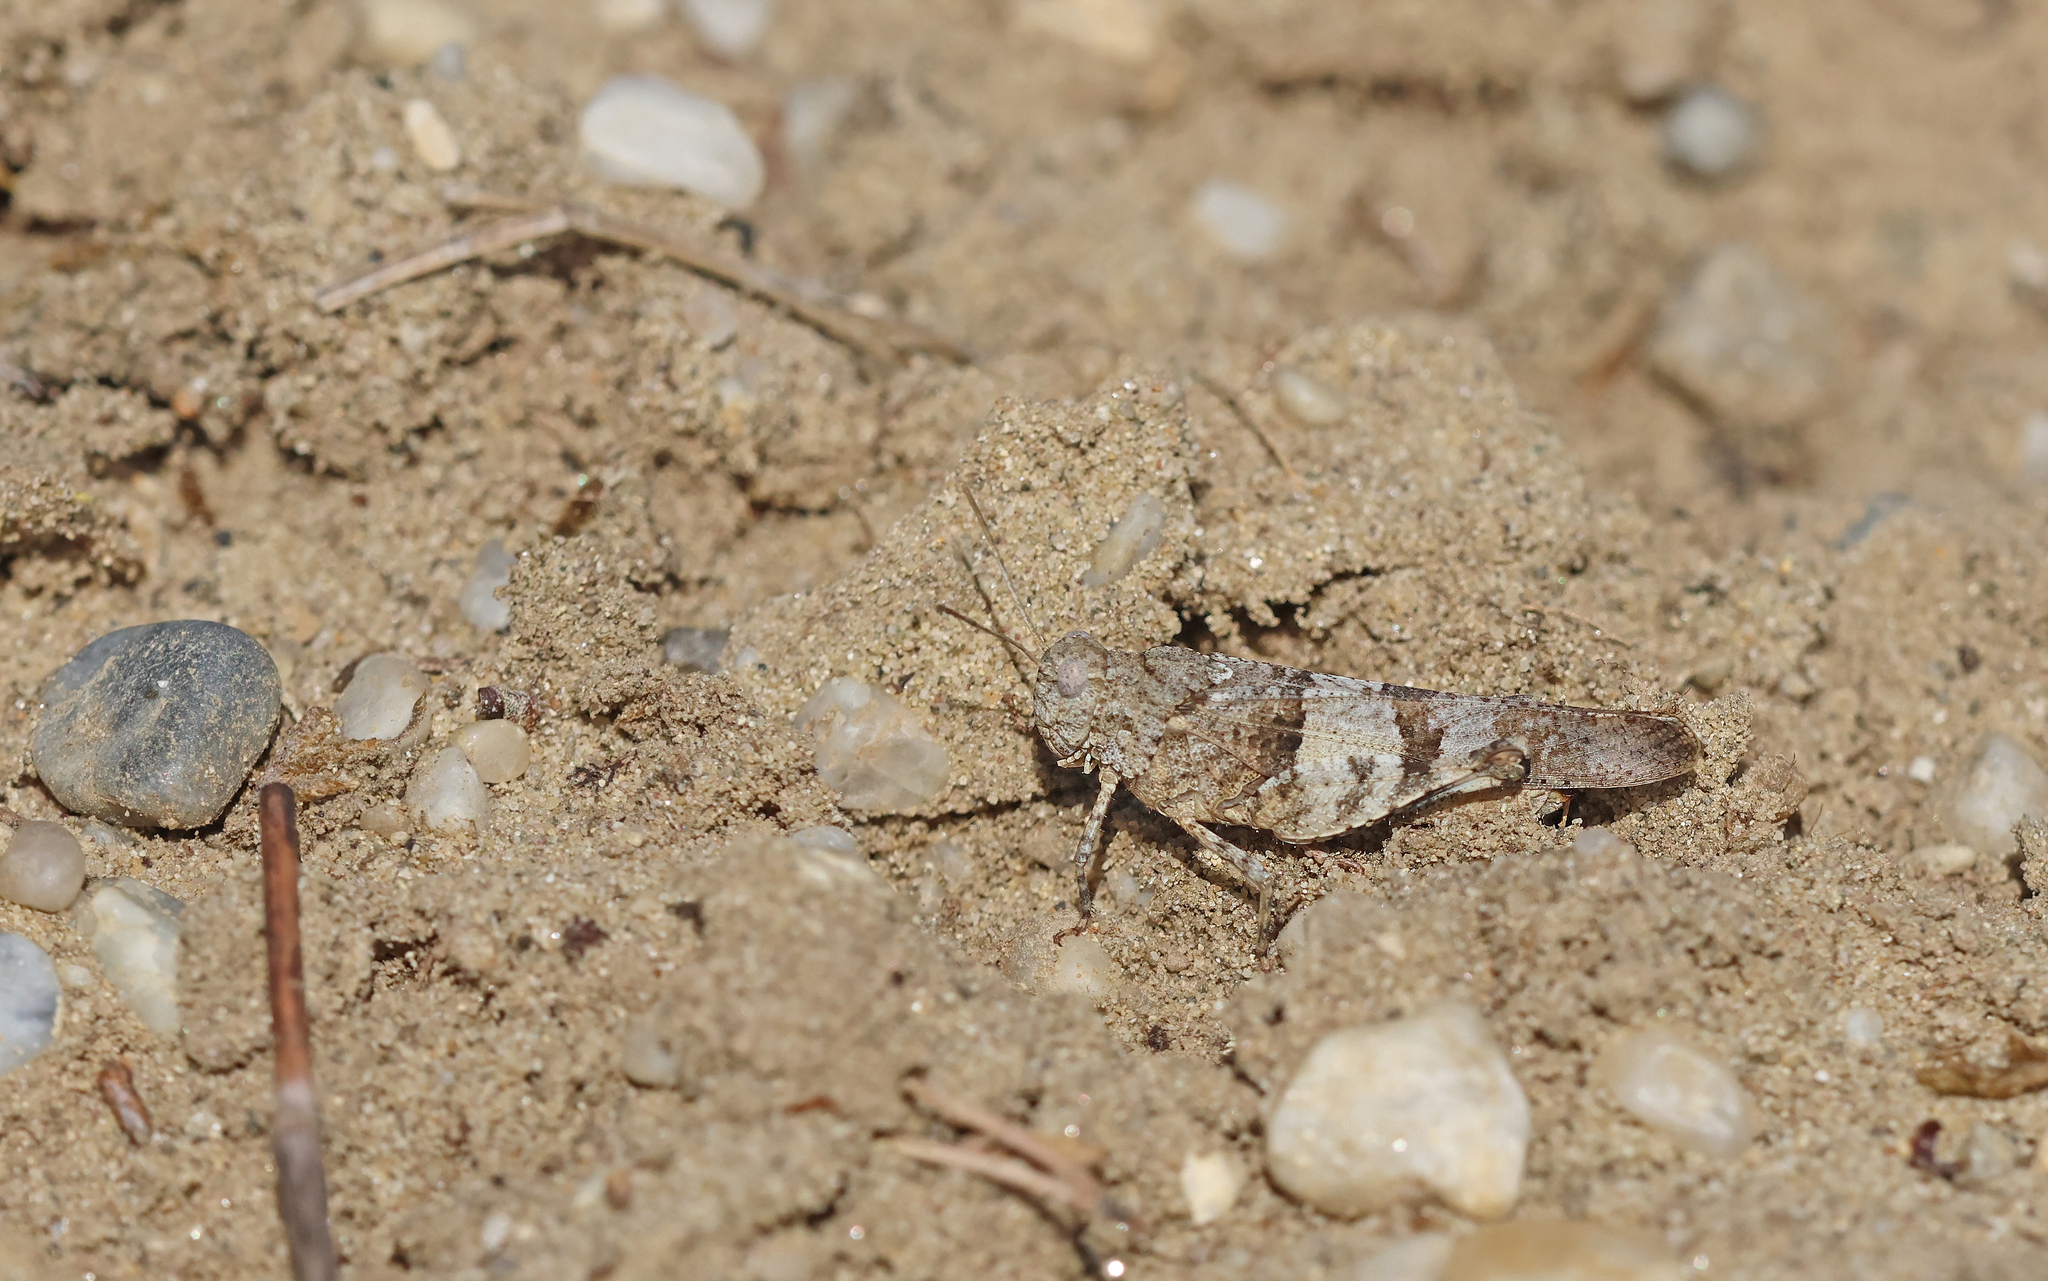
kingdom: Animalia
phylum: Arthropoda
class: Insecta
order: Orthoptera
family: Acrididae
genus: Oedipoda
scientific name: Oedipoda caerulescens
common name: Blue-winged grasshopper
